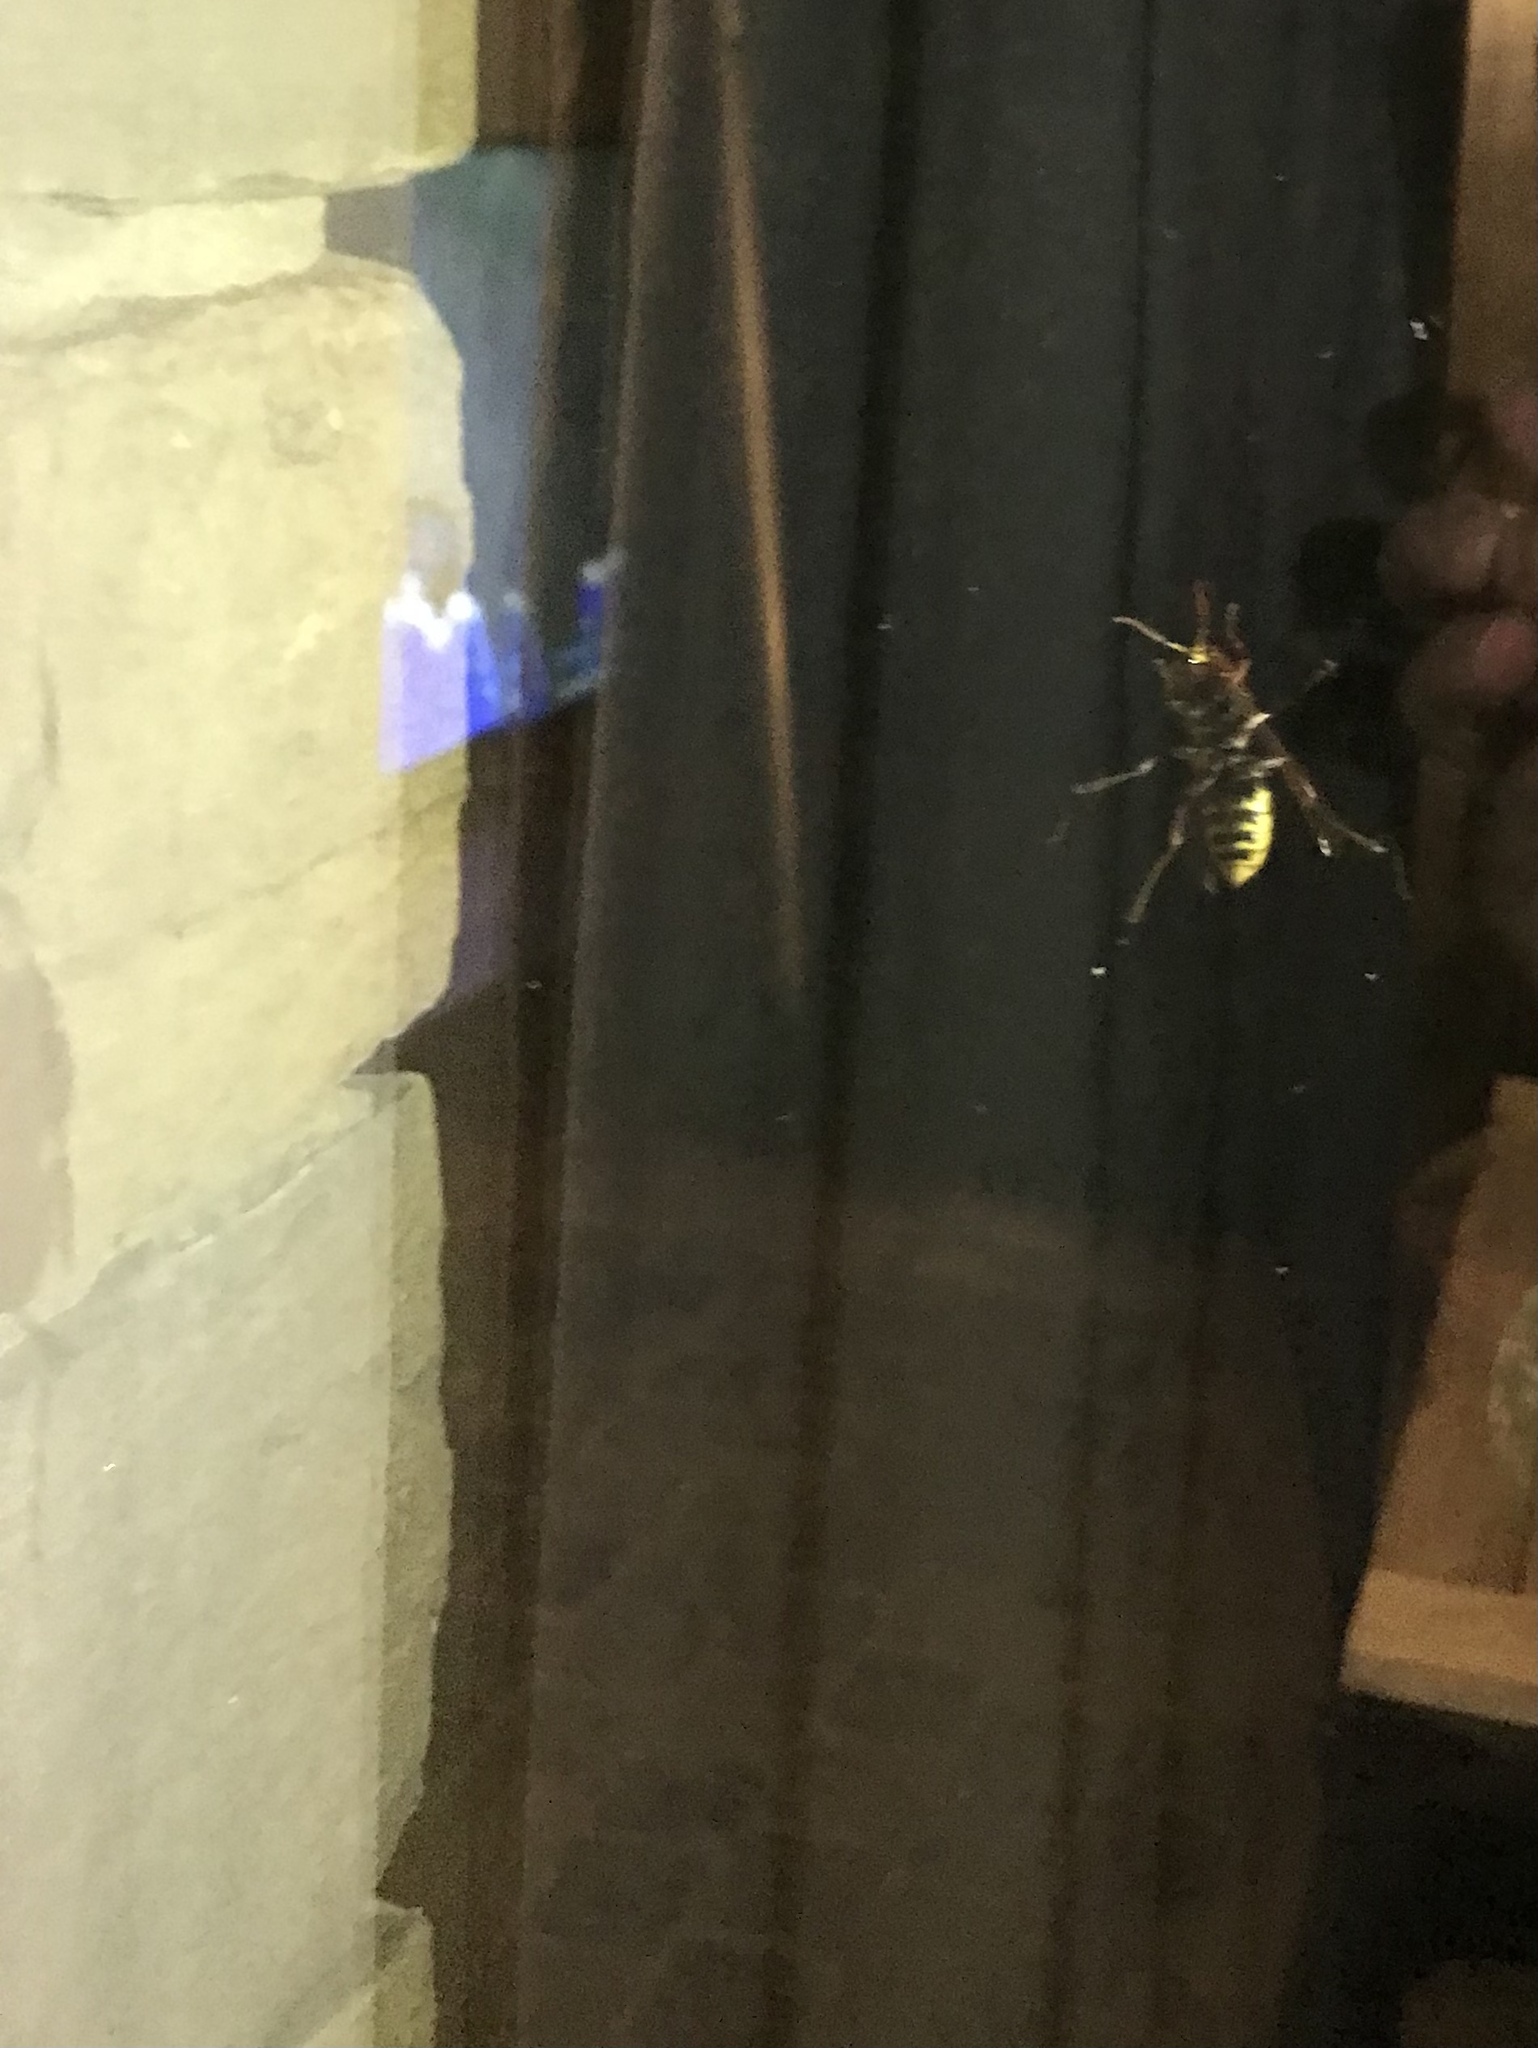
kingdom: Animalia
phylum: Arthropoda
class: Insecta
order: Hymenoptera
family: Vespidae
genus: Vespa
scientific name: Vespa crabro
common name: Hornet
